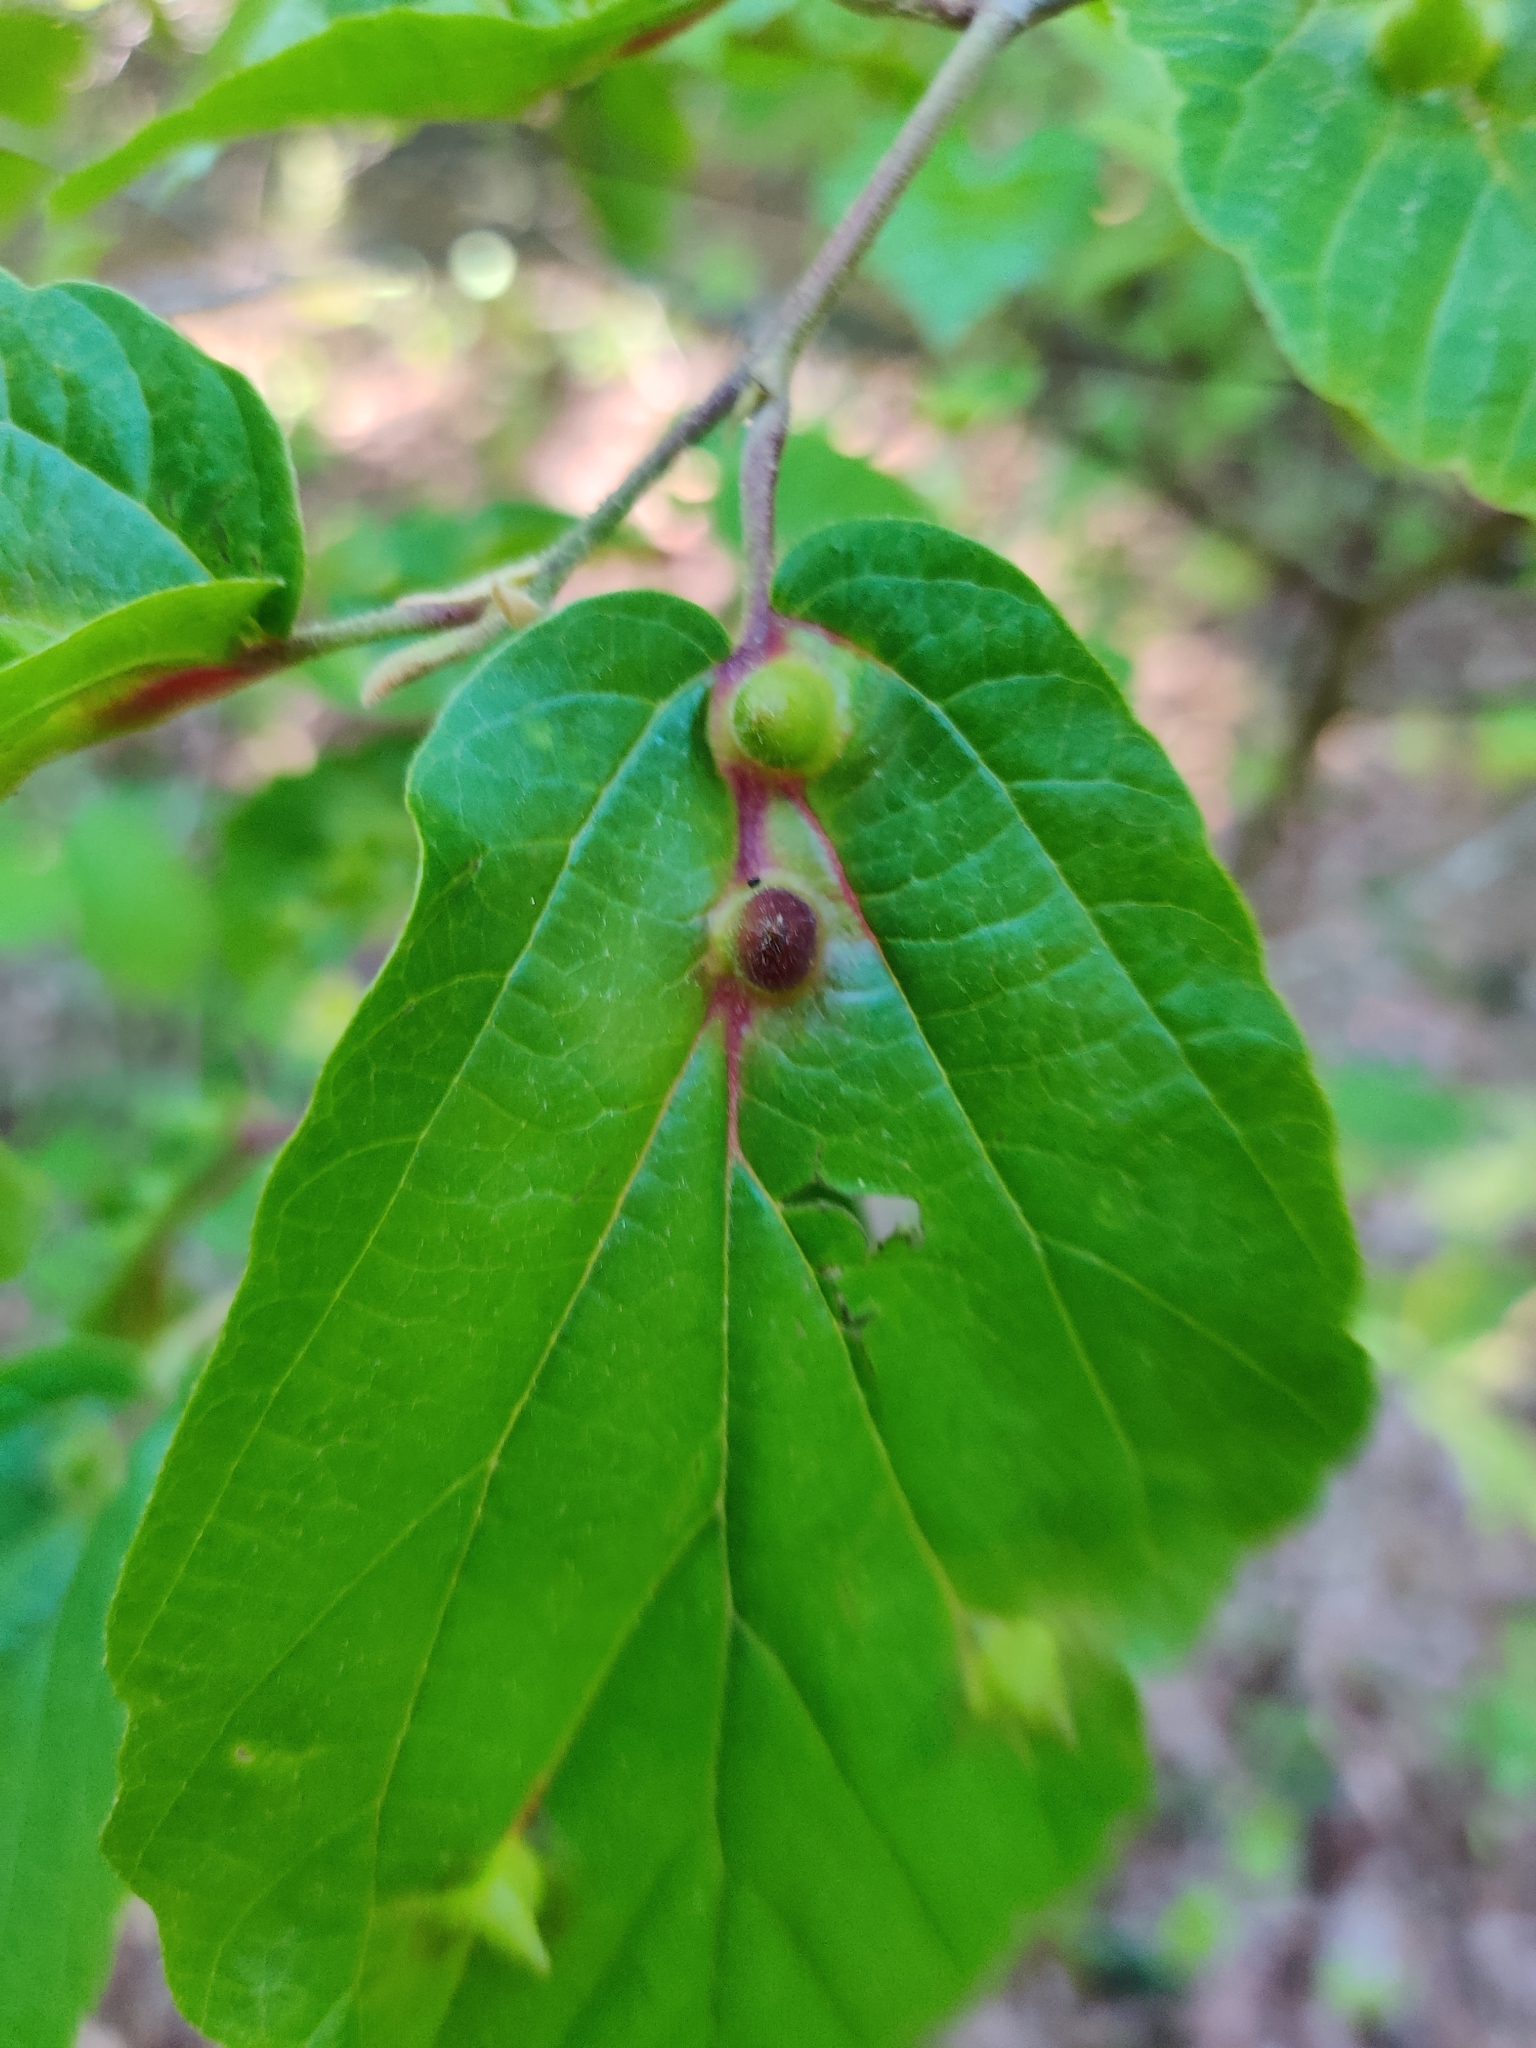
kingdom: Animalia
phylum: Arthropoda
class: Insecta
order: Hemiptera
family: Aphididae
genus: Hormaphis
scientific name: Hormaphis hamamelidis
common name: Witch-hazel cone gall aphid
